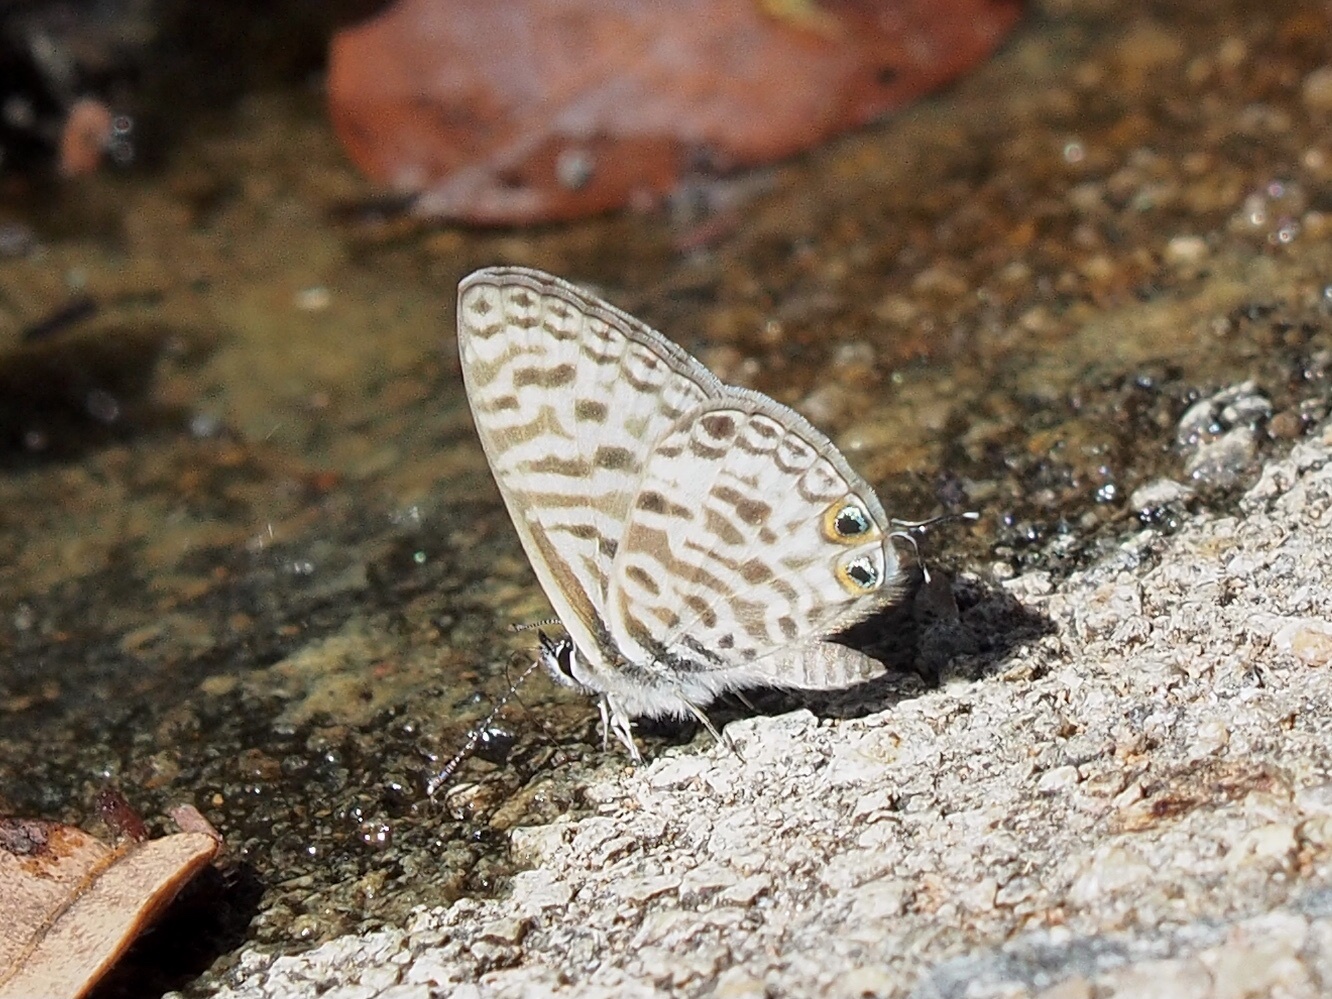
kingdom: Animalia
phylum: Arthropoda
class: Insecta
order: Lepidoptera
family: Lycaenidae
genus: Leptotes
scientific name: Leptotes
